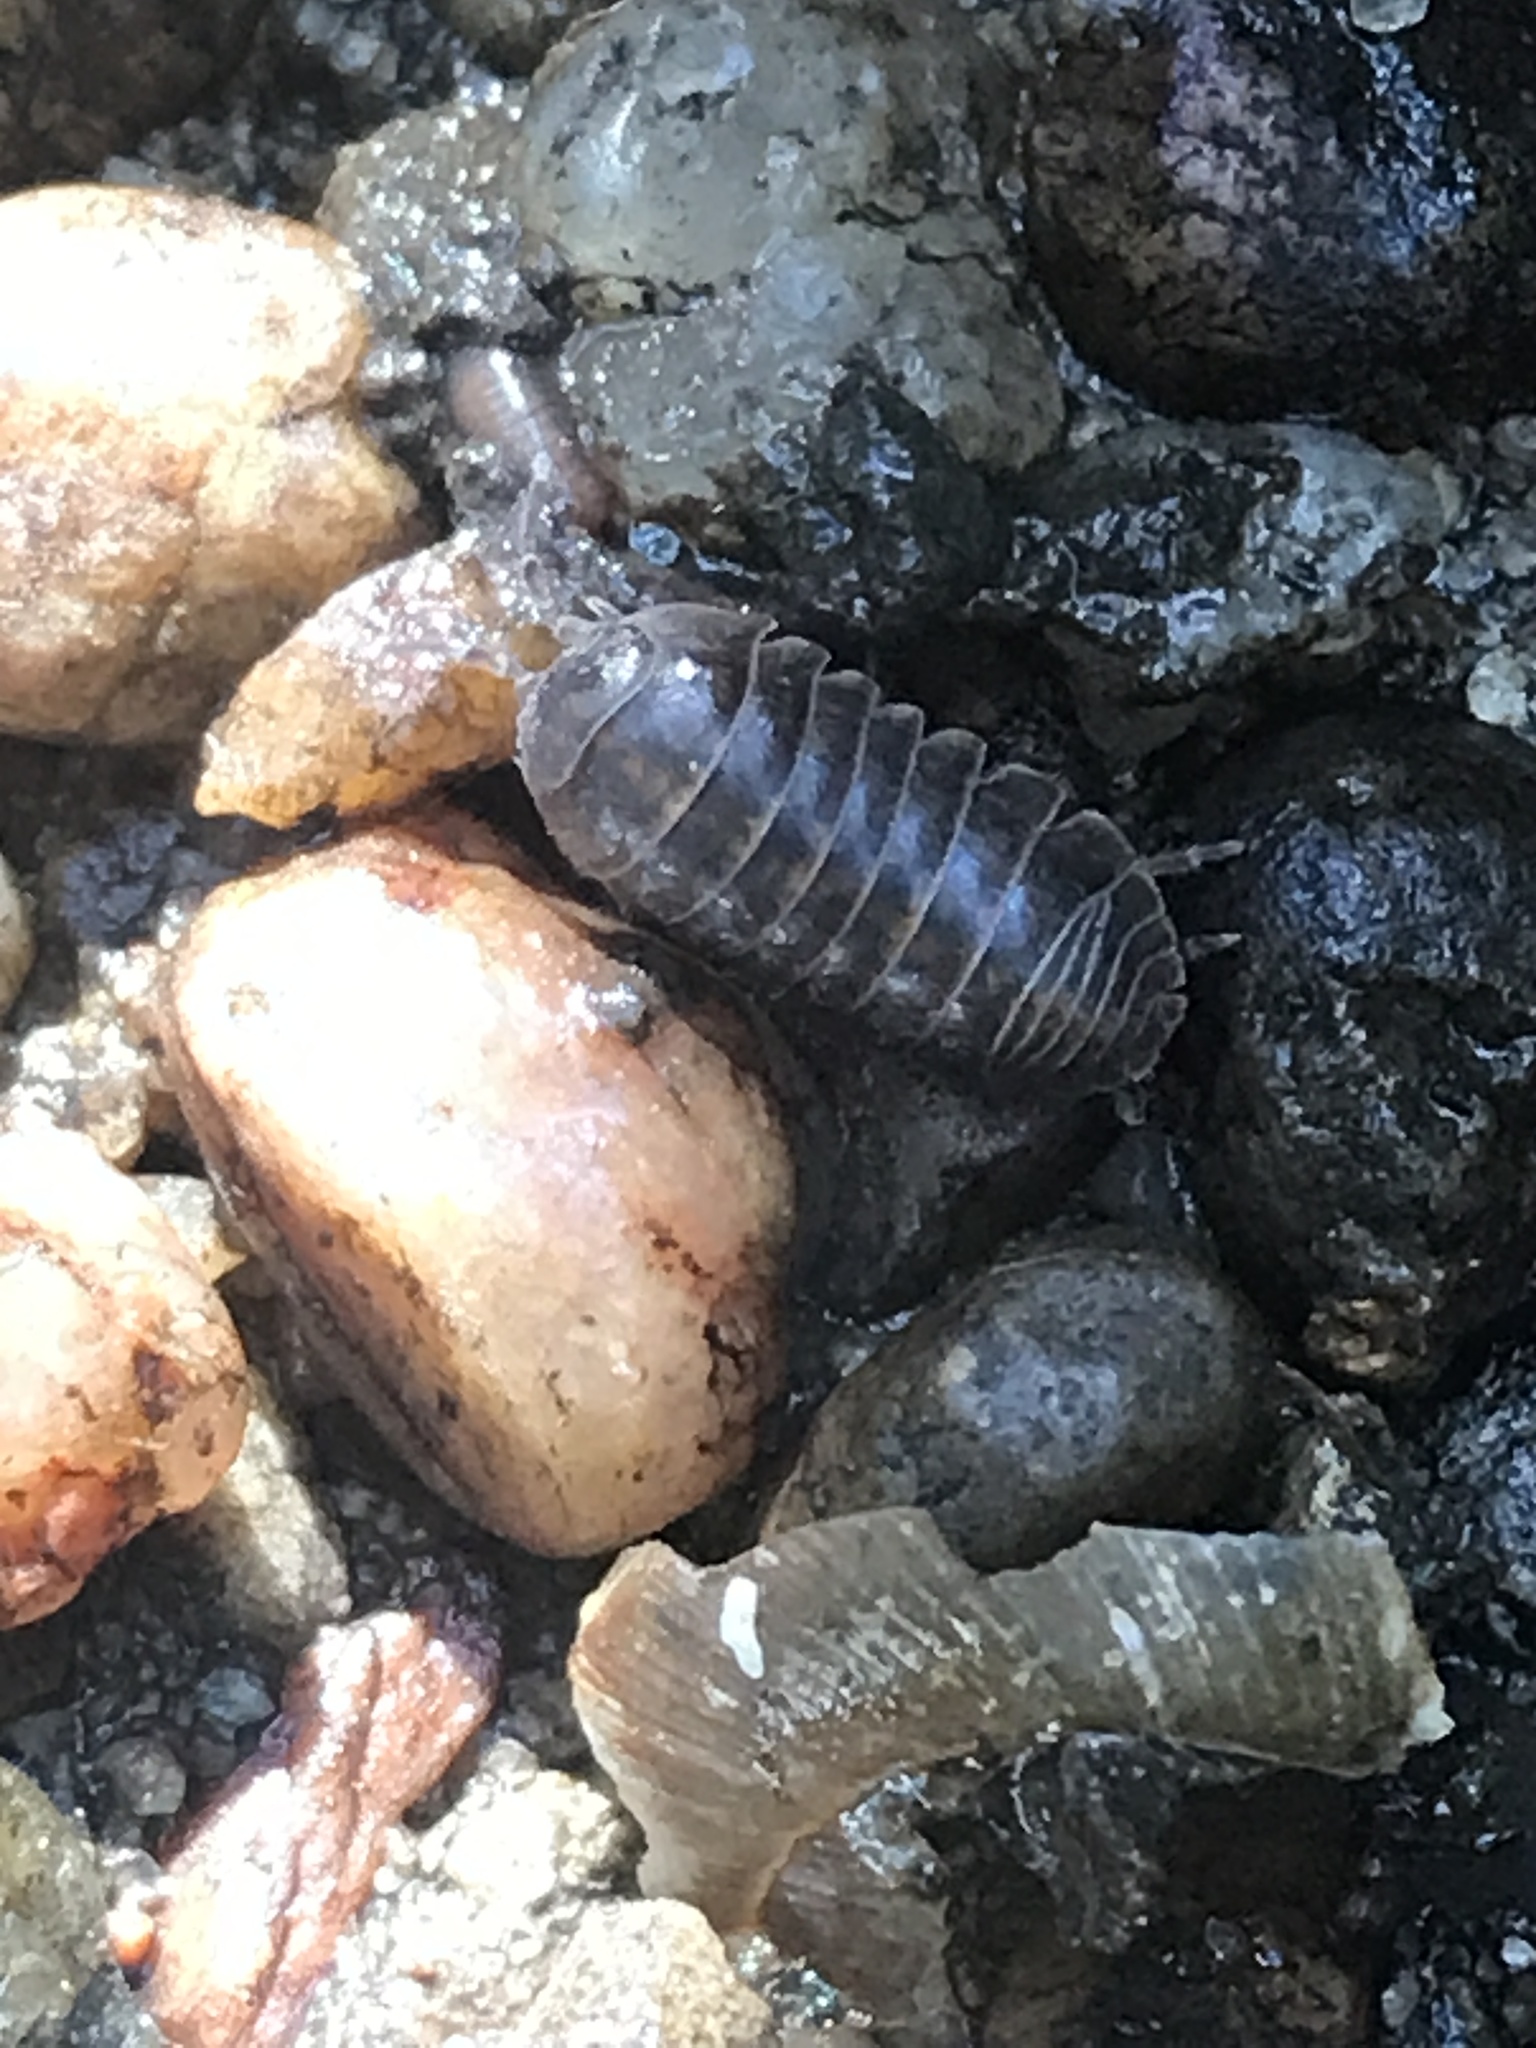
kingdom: Animalia
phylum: Arthropoda
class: Malacostraca
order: Isopoda
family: Armadillidiidae
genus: Armadillidium
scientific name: Armadillidium vulgare
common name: Common pill woodlouse
